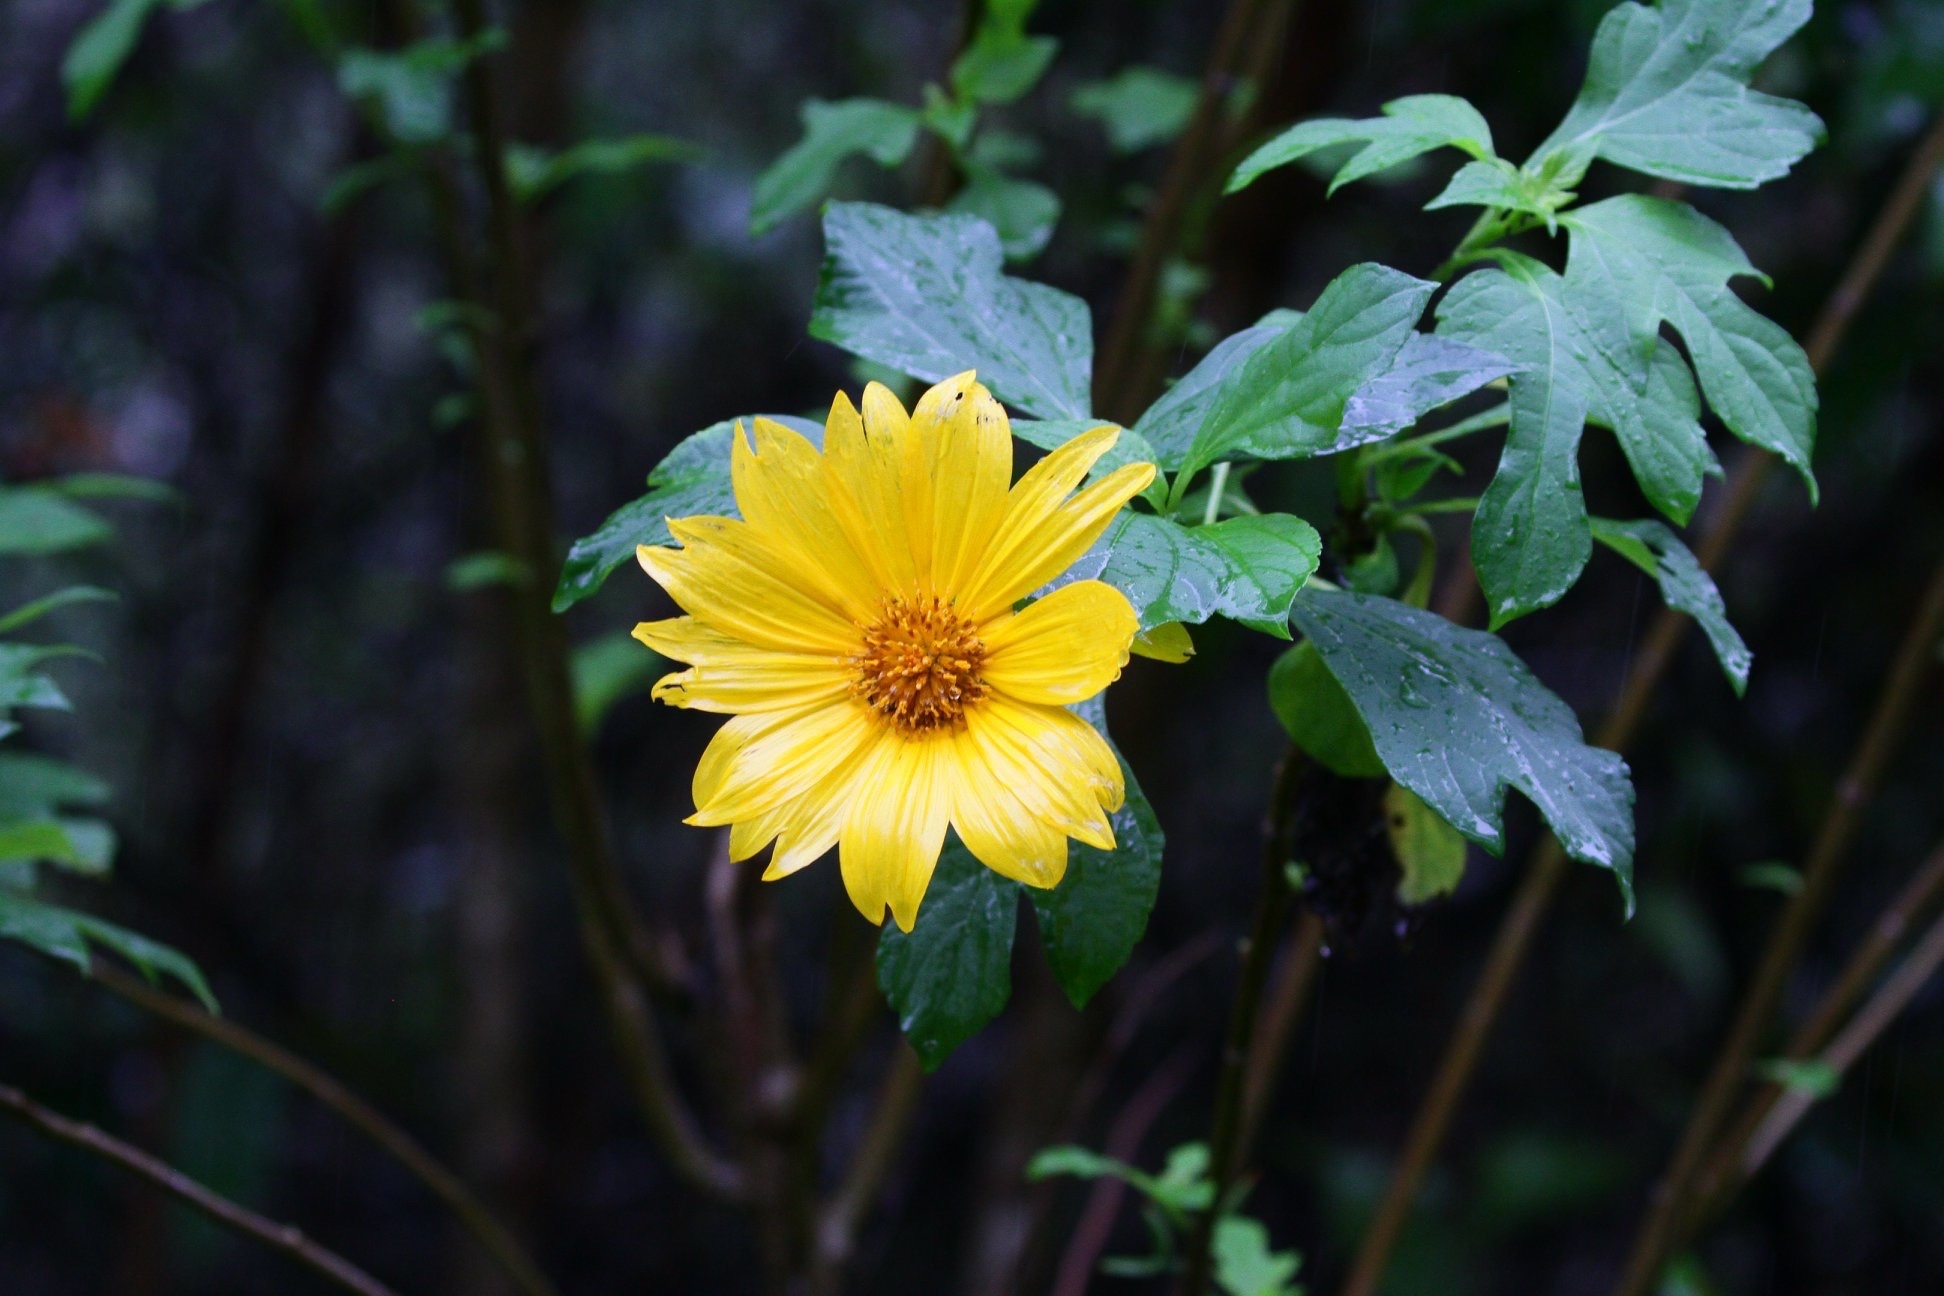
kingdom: Plantae
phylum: Tracheophyta
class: Magnoliopsida
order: Asterales
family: Asteraceae
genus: Tithonia
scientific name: Tithonia diversifolia
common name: Tree marigold
